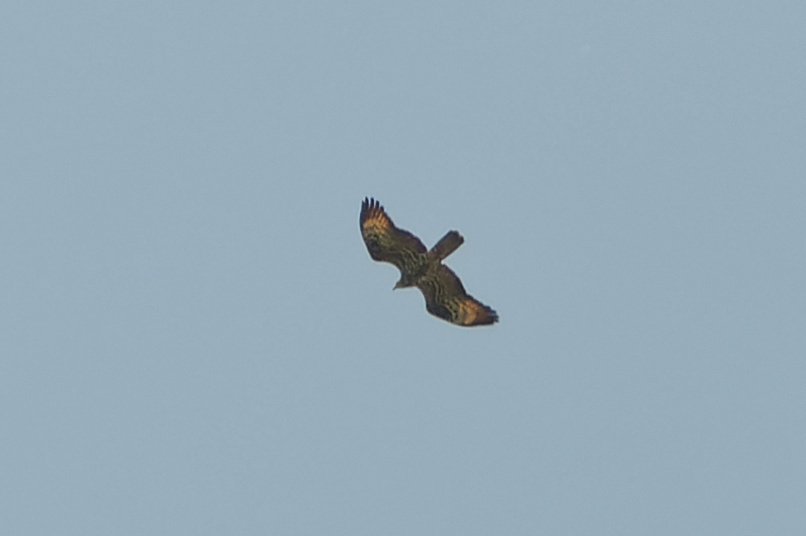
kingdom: Animalia
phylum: Chordata
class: Aves
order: Accipitriformes
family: Accipitridae
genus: Pernis
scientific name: Pernis apivorus
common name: European honey buzzard
